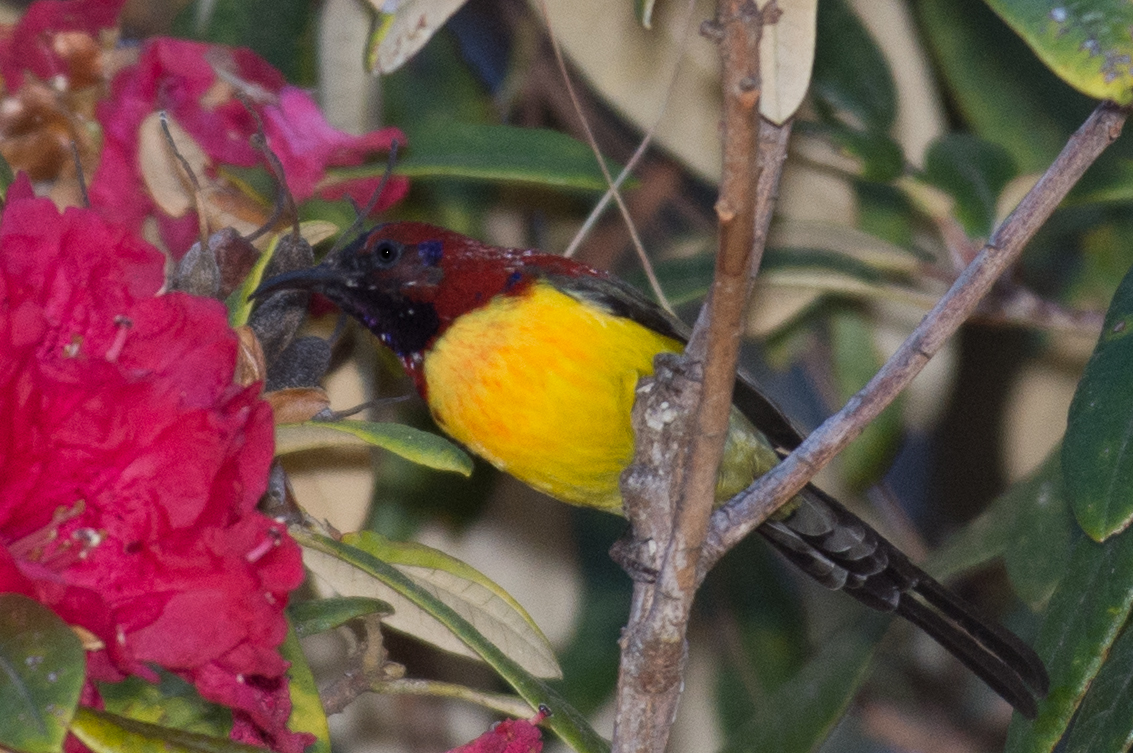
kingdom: Animalia
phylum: Chordata
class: Aves
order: Passeriformes
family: Nectariniidae
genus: Aethopyga
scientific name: Aethopyga nipalensis
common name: Green-tailed sunbird
